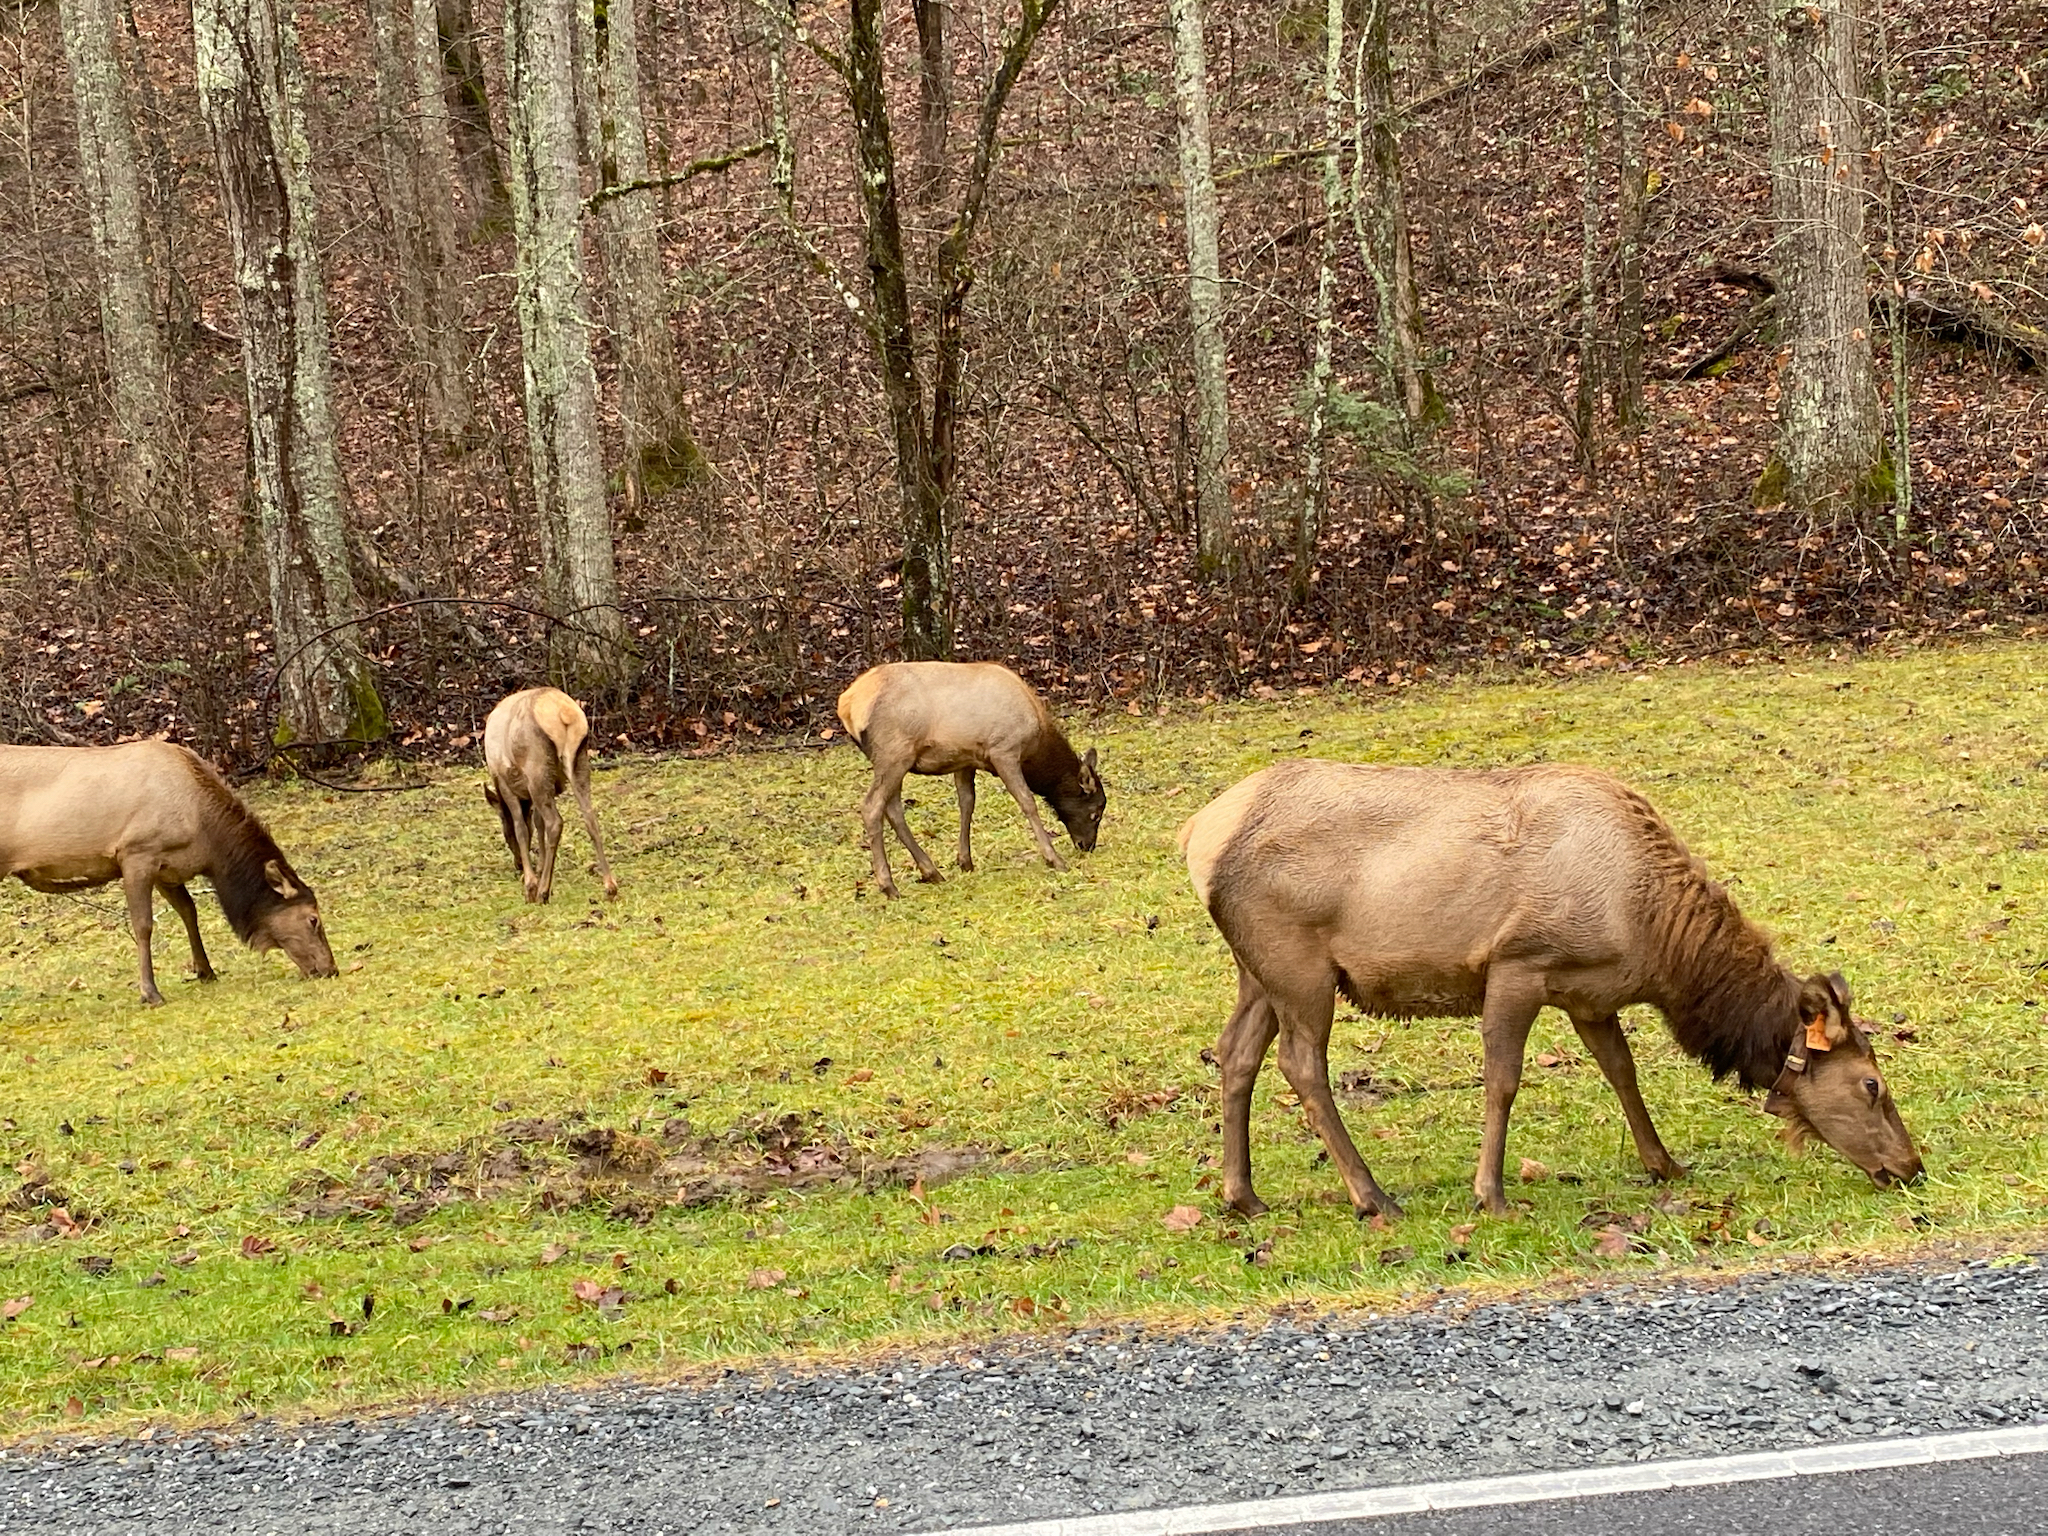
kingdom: Animalia
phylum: Chordata
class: Mammalia
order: Artiodactyla
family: Cervidae
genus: Cervus
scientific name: Cervus elaphus
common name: Red deer
